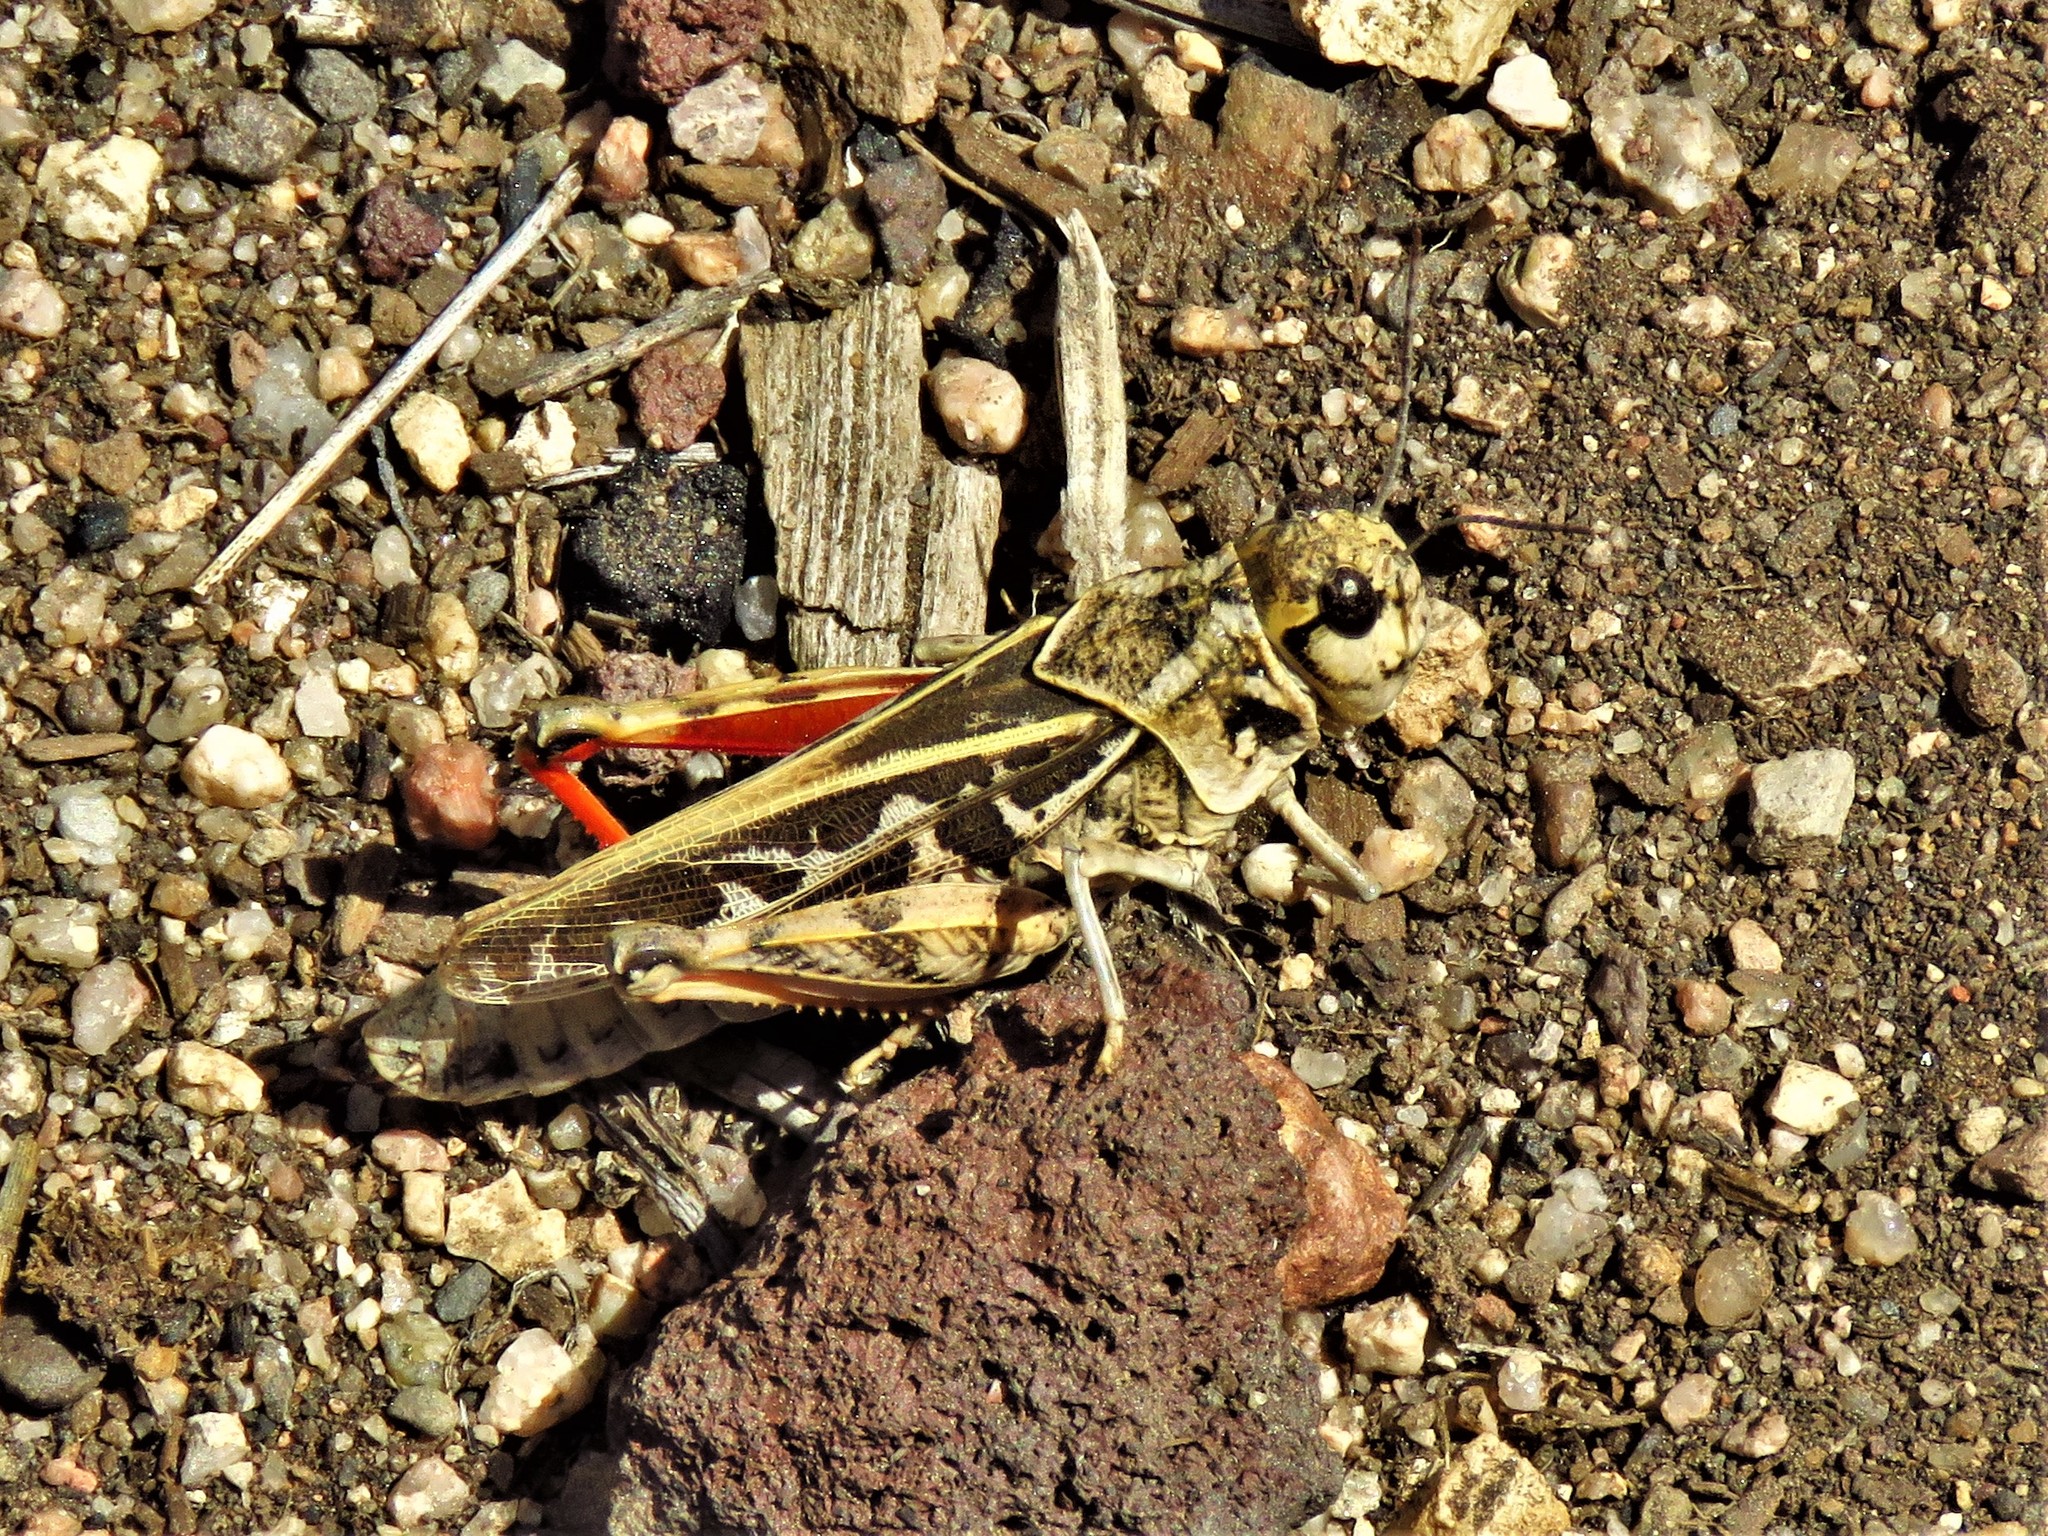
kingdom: Animalia
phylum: Arthropoda
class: Insecta
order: Orthoptera
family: Acrididae
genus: Xanthippus
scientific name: Xanthippus corallipes
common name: Redshanked grasshopper
